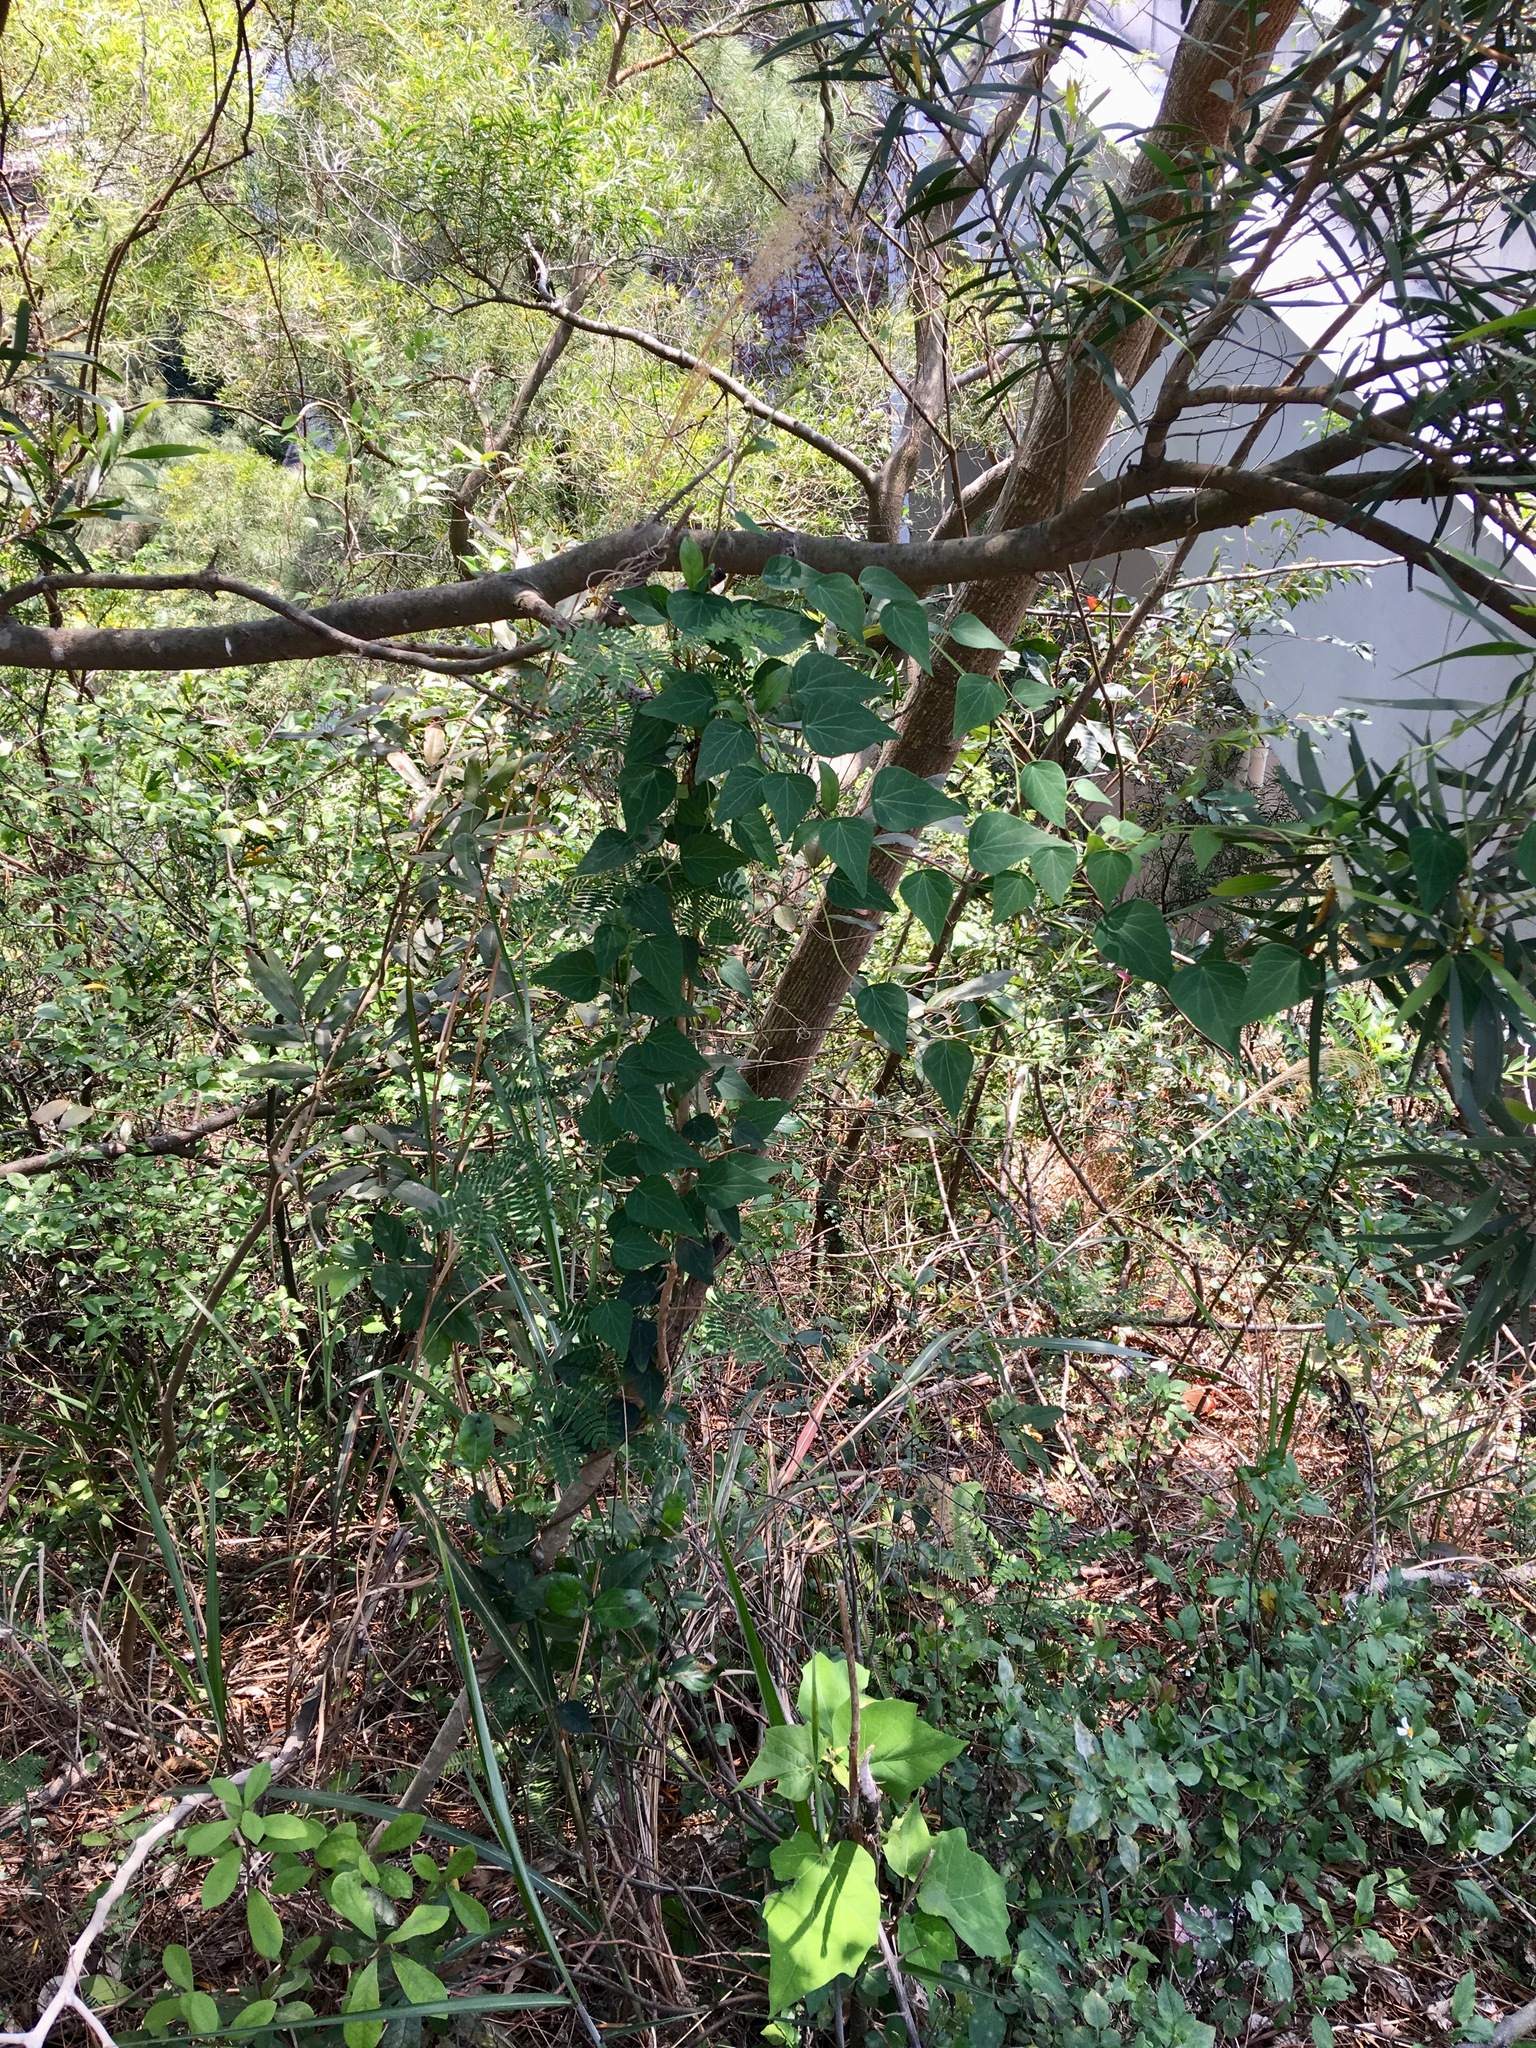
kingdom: Plantae
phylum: Tracheophyta
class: Magnoliopsida
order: Ranunculales
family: Menispermaceae
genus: Cyclea
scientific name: Cyclea hypoglauca
